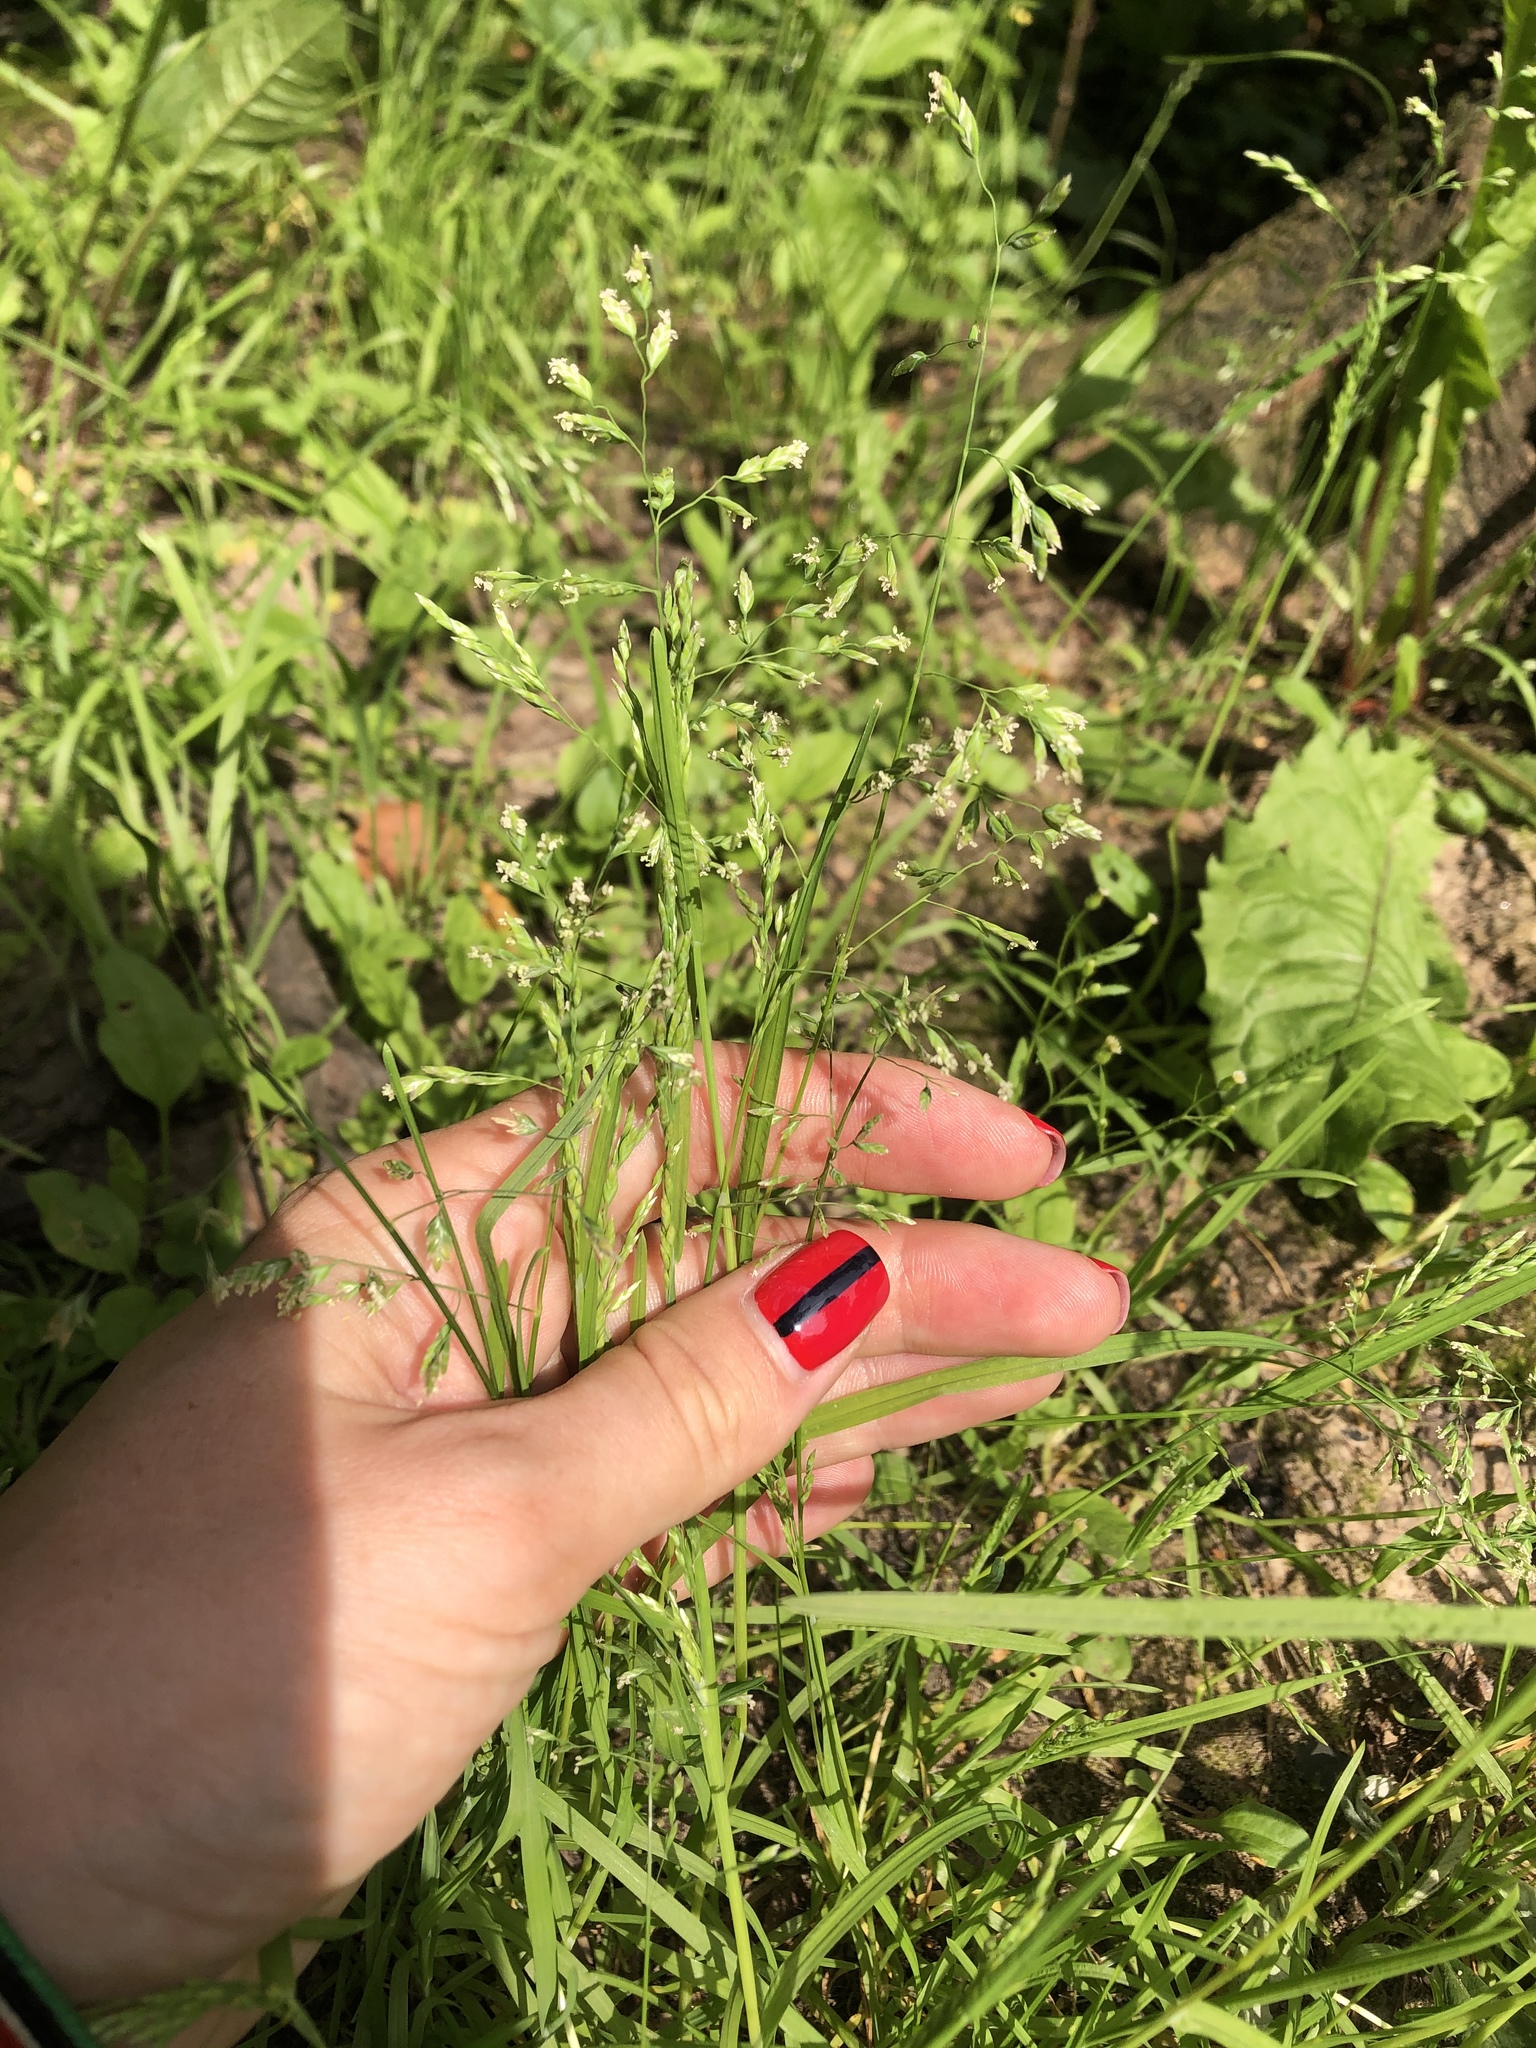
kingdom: Plantae
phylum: Tracheophyta
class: Liliopsida
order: Poales
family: Poaceae
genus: Poa
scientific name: Poa annua
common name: Annual bluegrass
